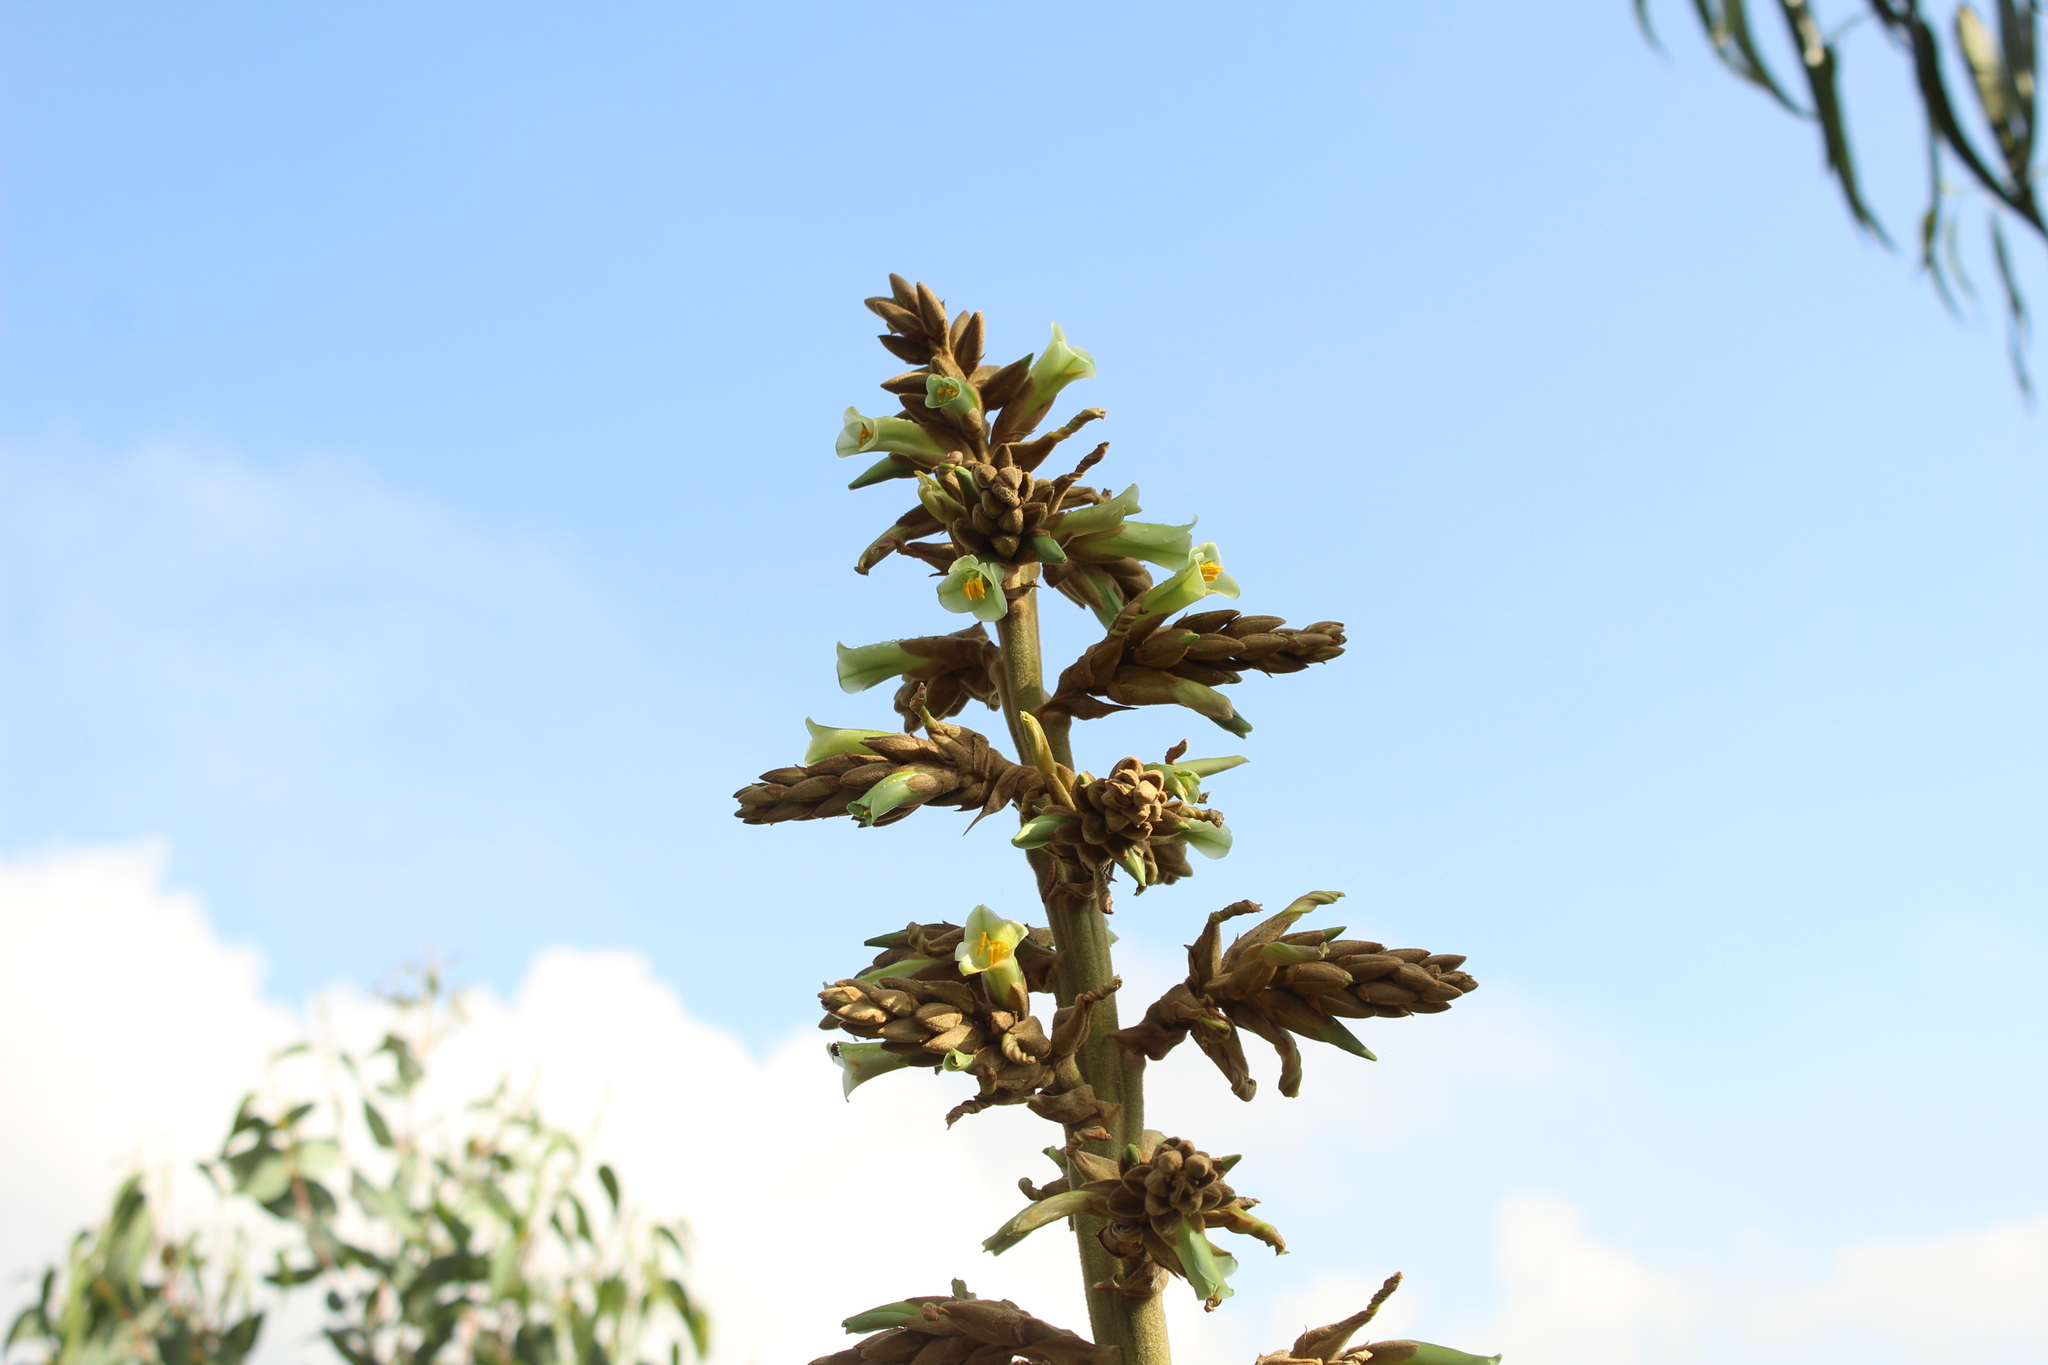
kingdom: Plantae
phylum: Tracheophyta
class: Liliopsida
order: Poales
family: Bromeliaceae
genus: Puya
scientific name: Puya bicolor
